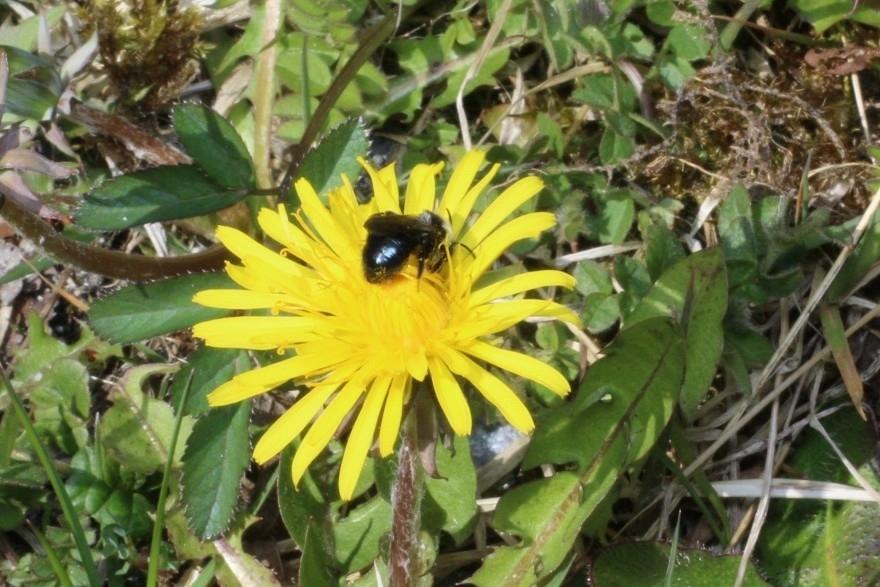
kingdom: Animalia
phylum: Arthropoda
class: Insecta
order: Hymenoptera
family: Andrenidae
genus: Andrena
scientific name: Andrena cineraria
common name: Ashy mining bee
